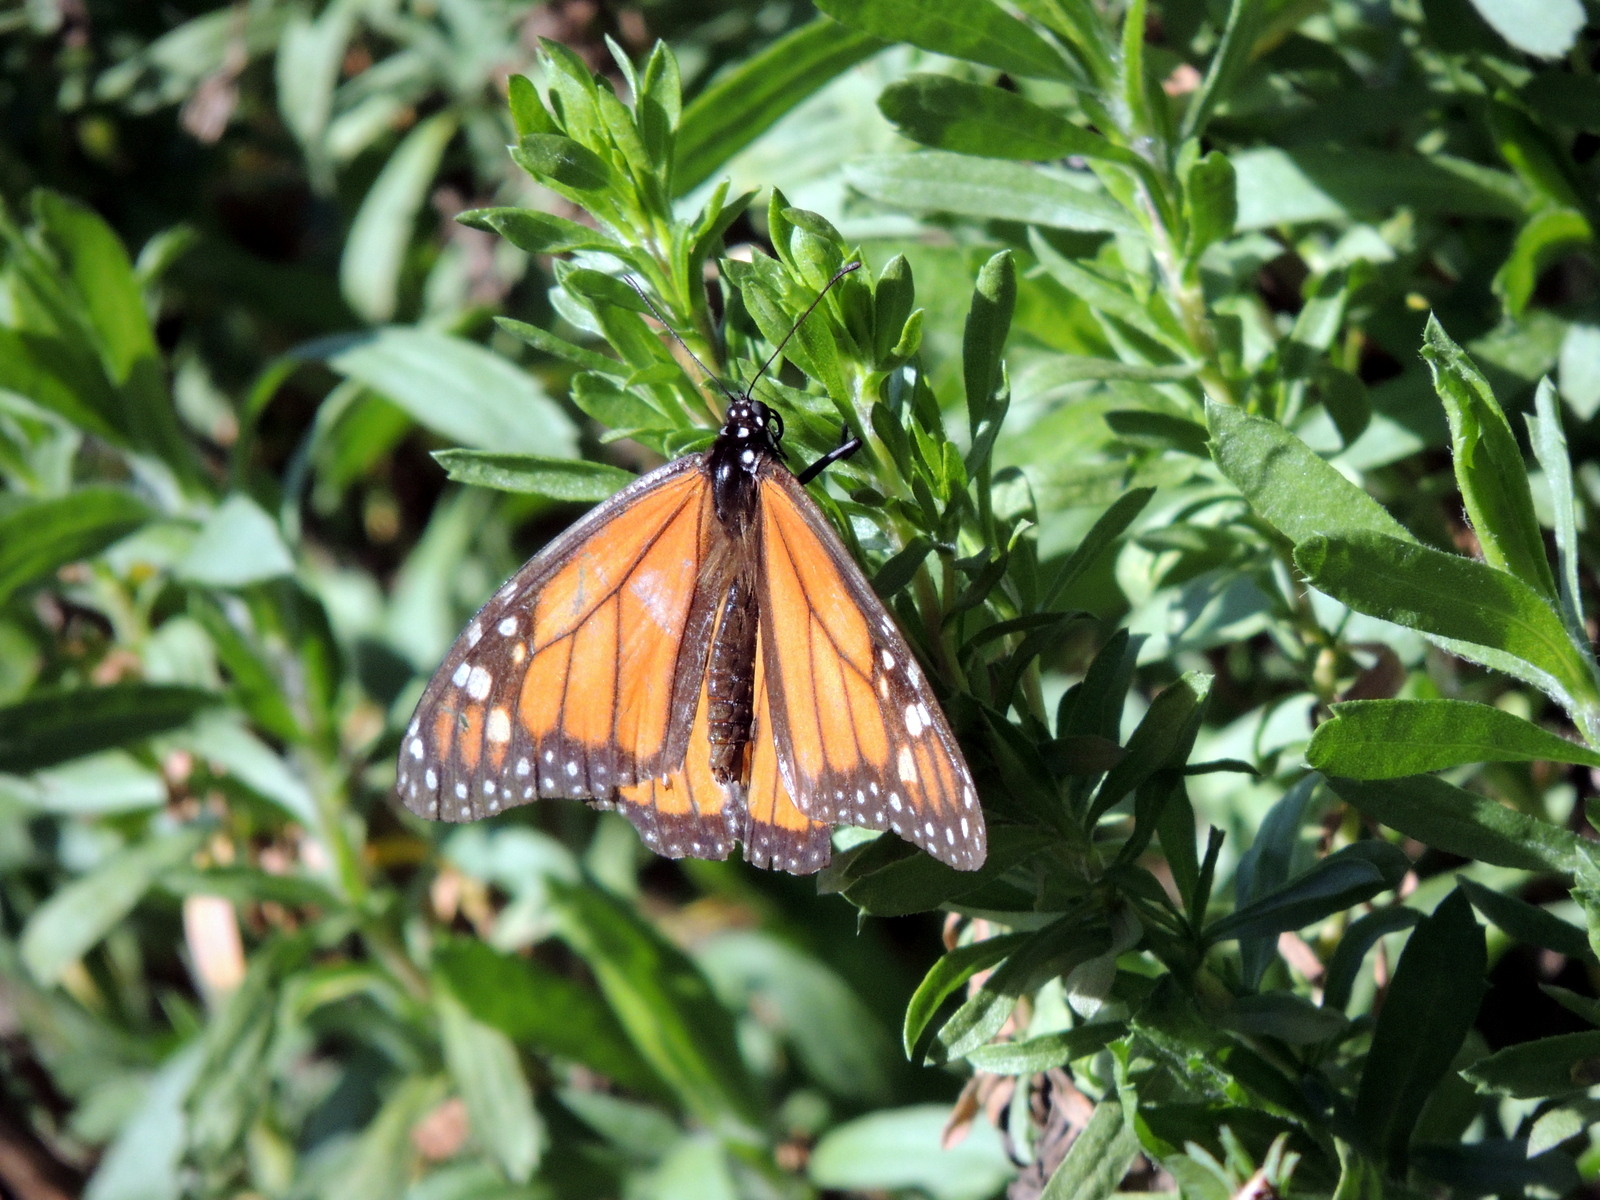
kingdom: Animalia
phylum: Arthropoda
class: Insecta
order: Lepidoptera
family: Nymphalidae
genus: Danaus
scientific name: Danaus plexippus
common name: Monarch
